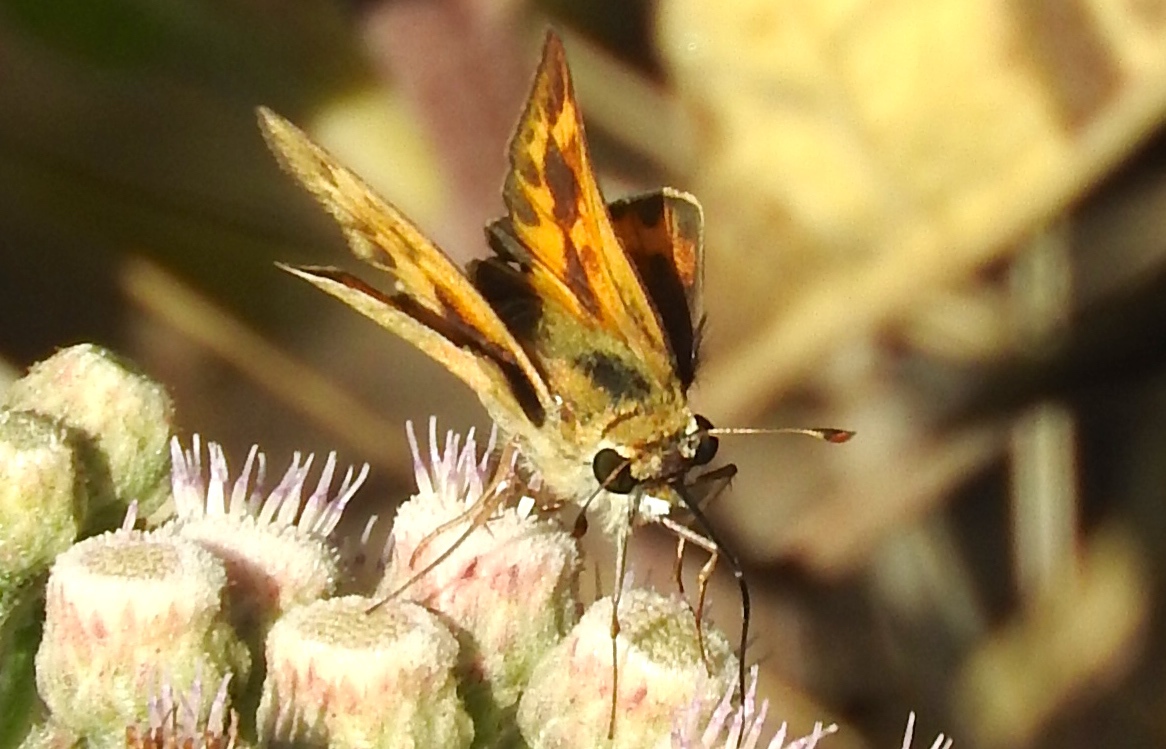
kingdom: Animalia
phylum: Arthropoda
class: Insecta
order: Lepidoptera
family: Hesperiidae
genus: Hylephila
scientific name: Hylephila phyleus
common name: Fiery skipper
